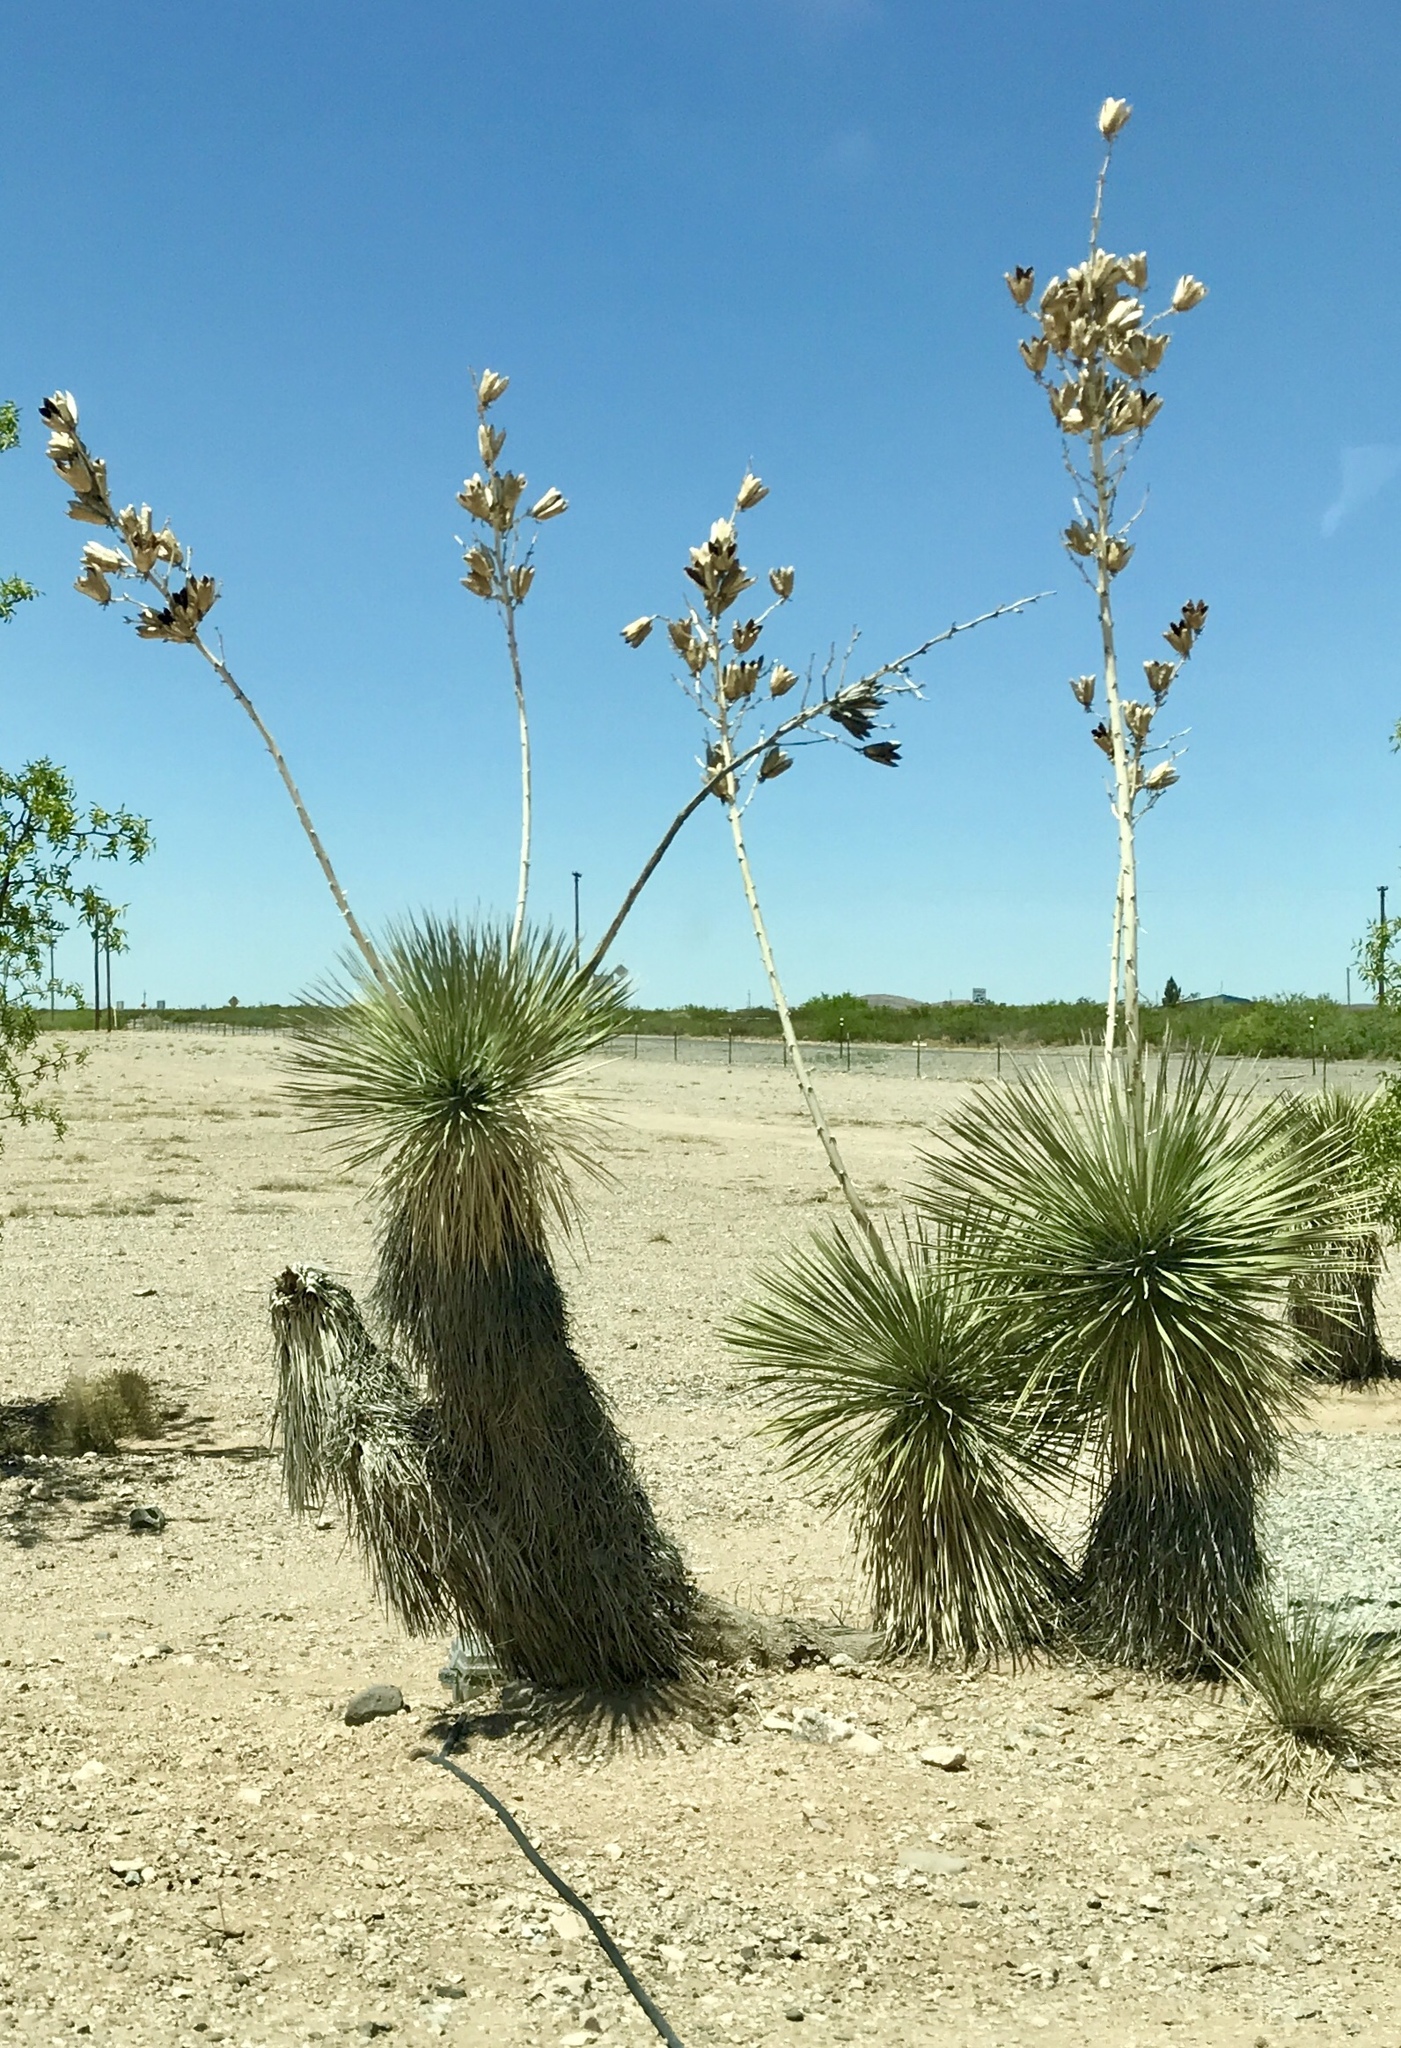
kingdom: Plantae
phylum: Tracheophyta
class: Liliopsida
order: Asparagales
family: Asparagaceae
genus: Yucca
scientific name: Yucca elata
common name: Palmella
